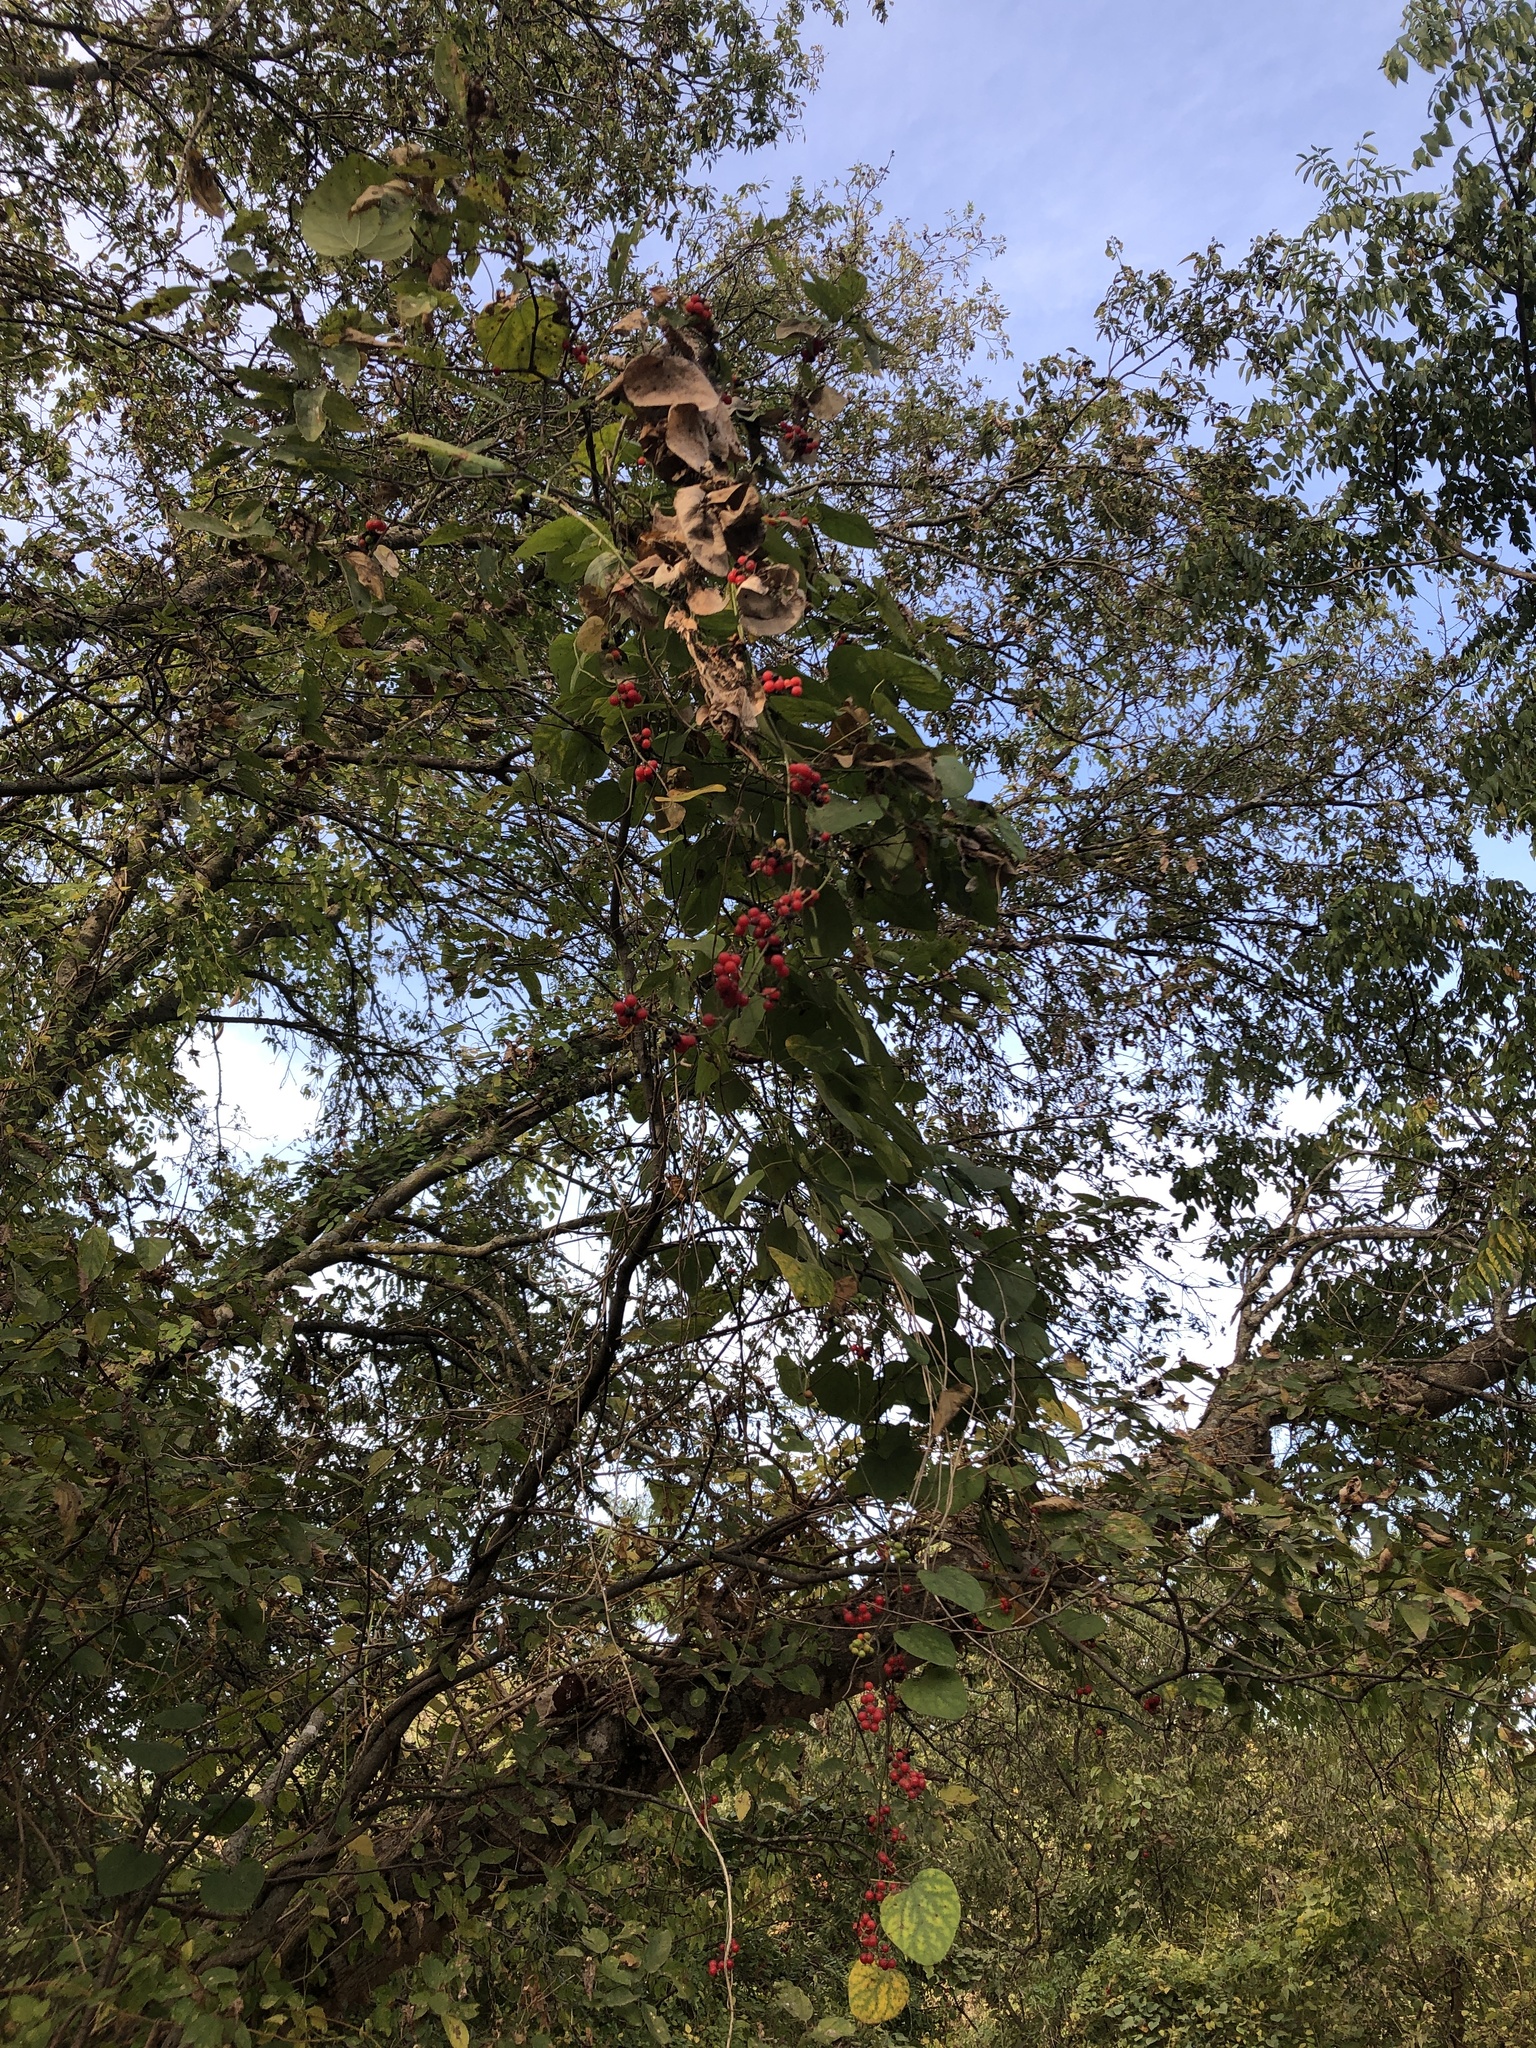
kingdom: Plantae
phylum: Tracheophyta
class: Magnoliopsida
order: Ranunculales
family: Menispermaceae
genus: Cocculus
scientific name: Cocculus carolinus
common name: Carolina moonseed
